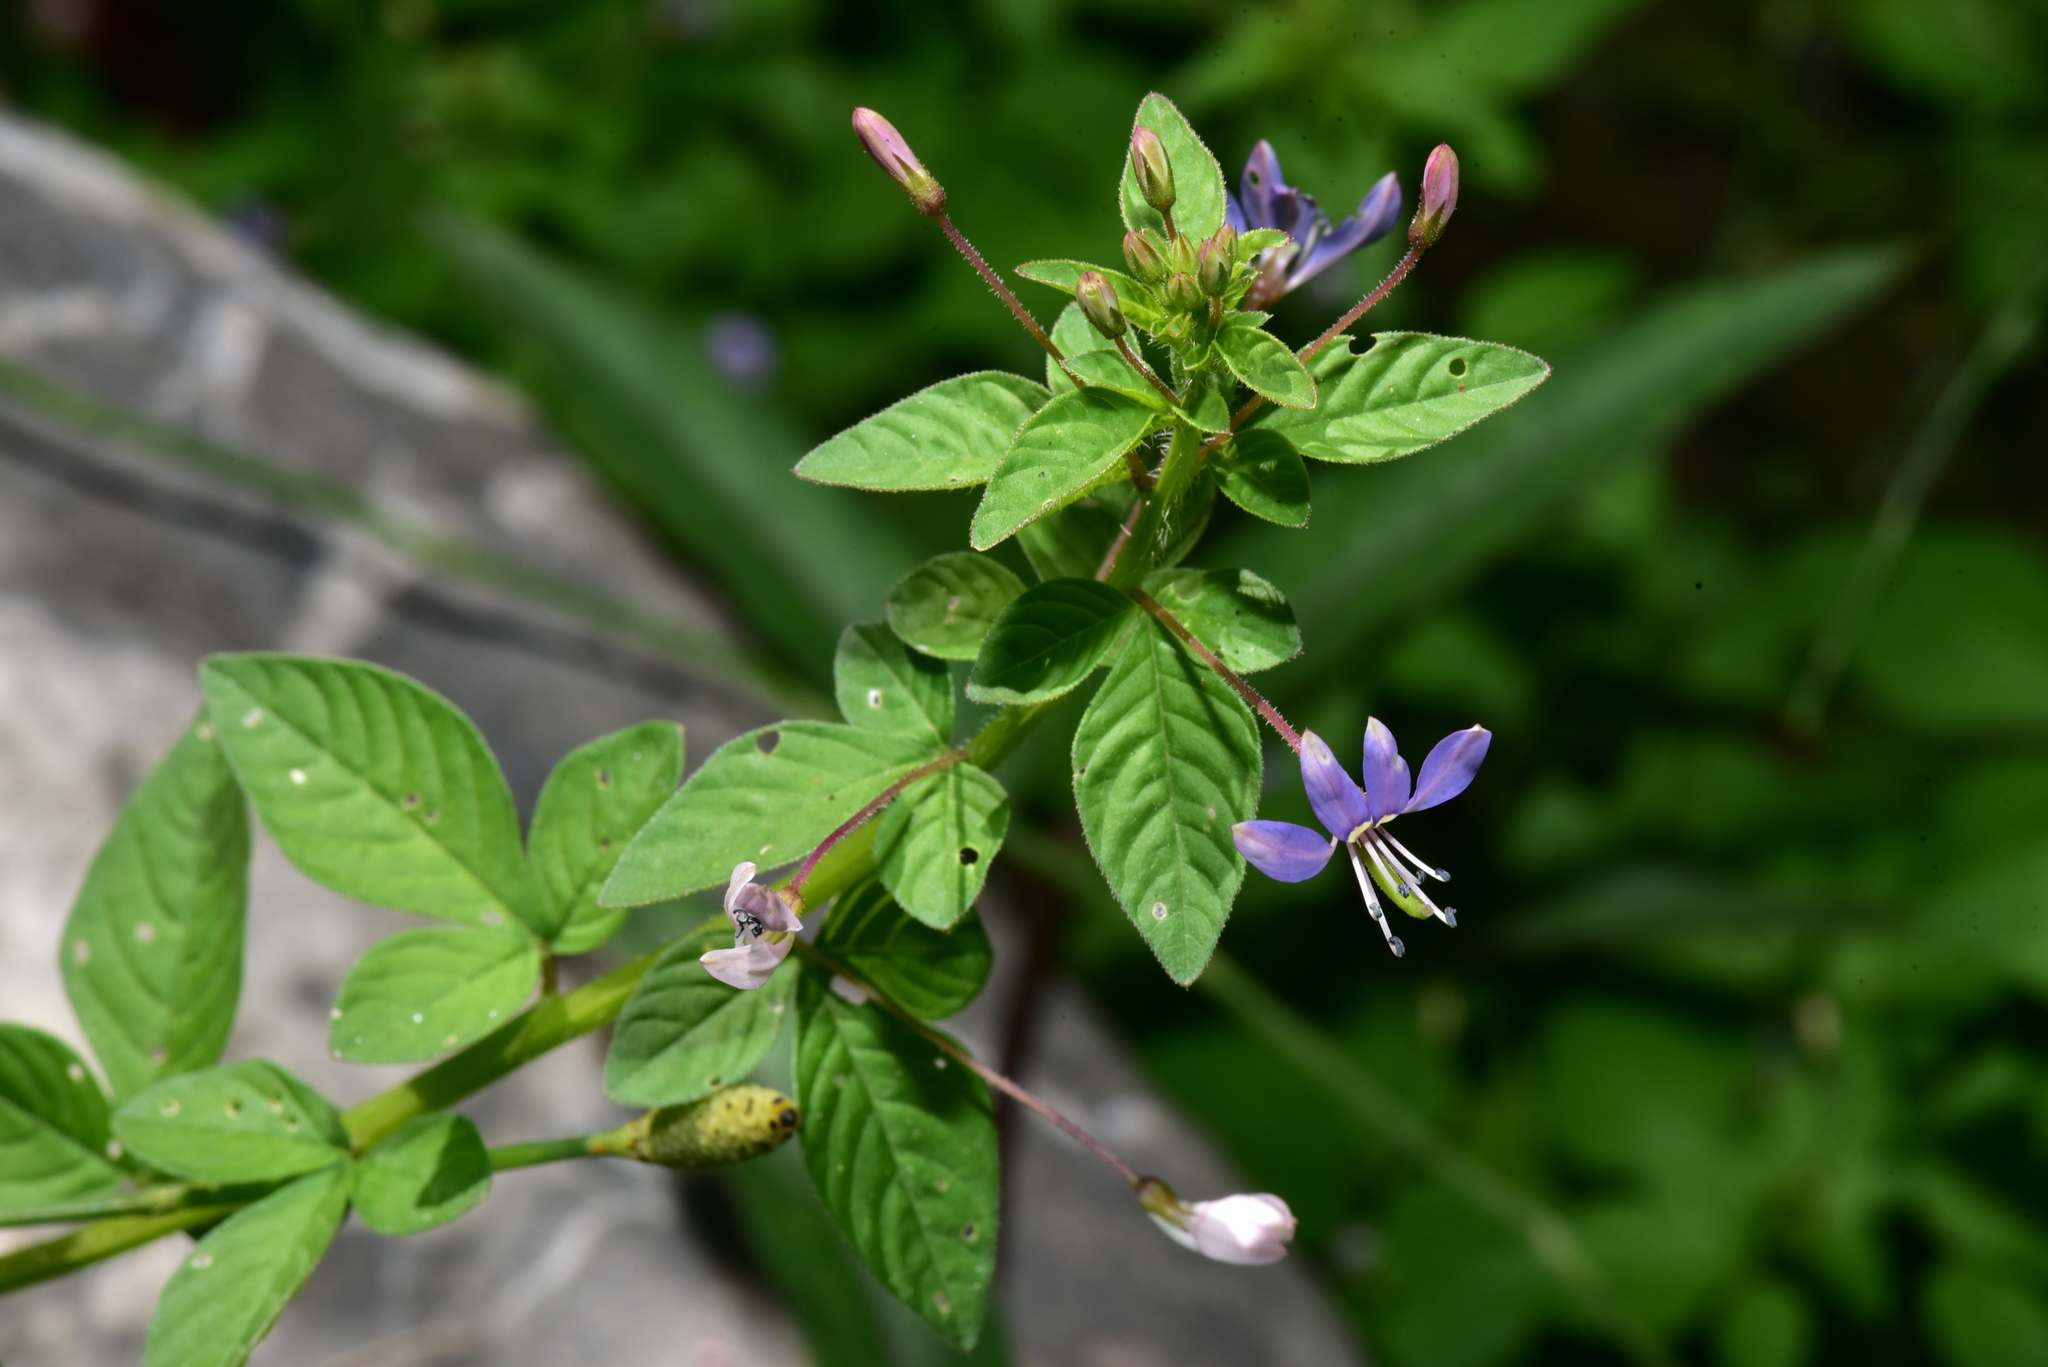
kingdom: Plantae
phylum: Tracheophyta
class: Magnoliopsida
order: Brassicales
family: Cleomaceae
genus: Sieruela
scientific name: Sieruela rutidosperma
